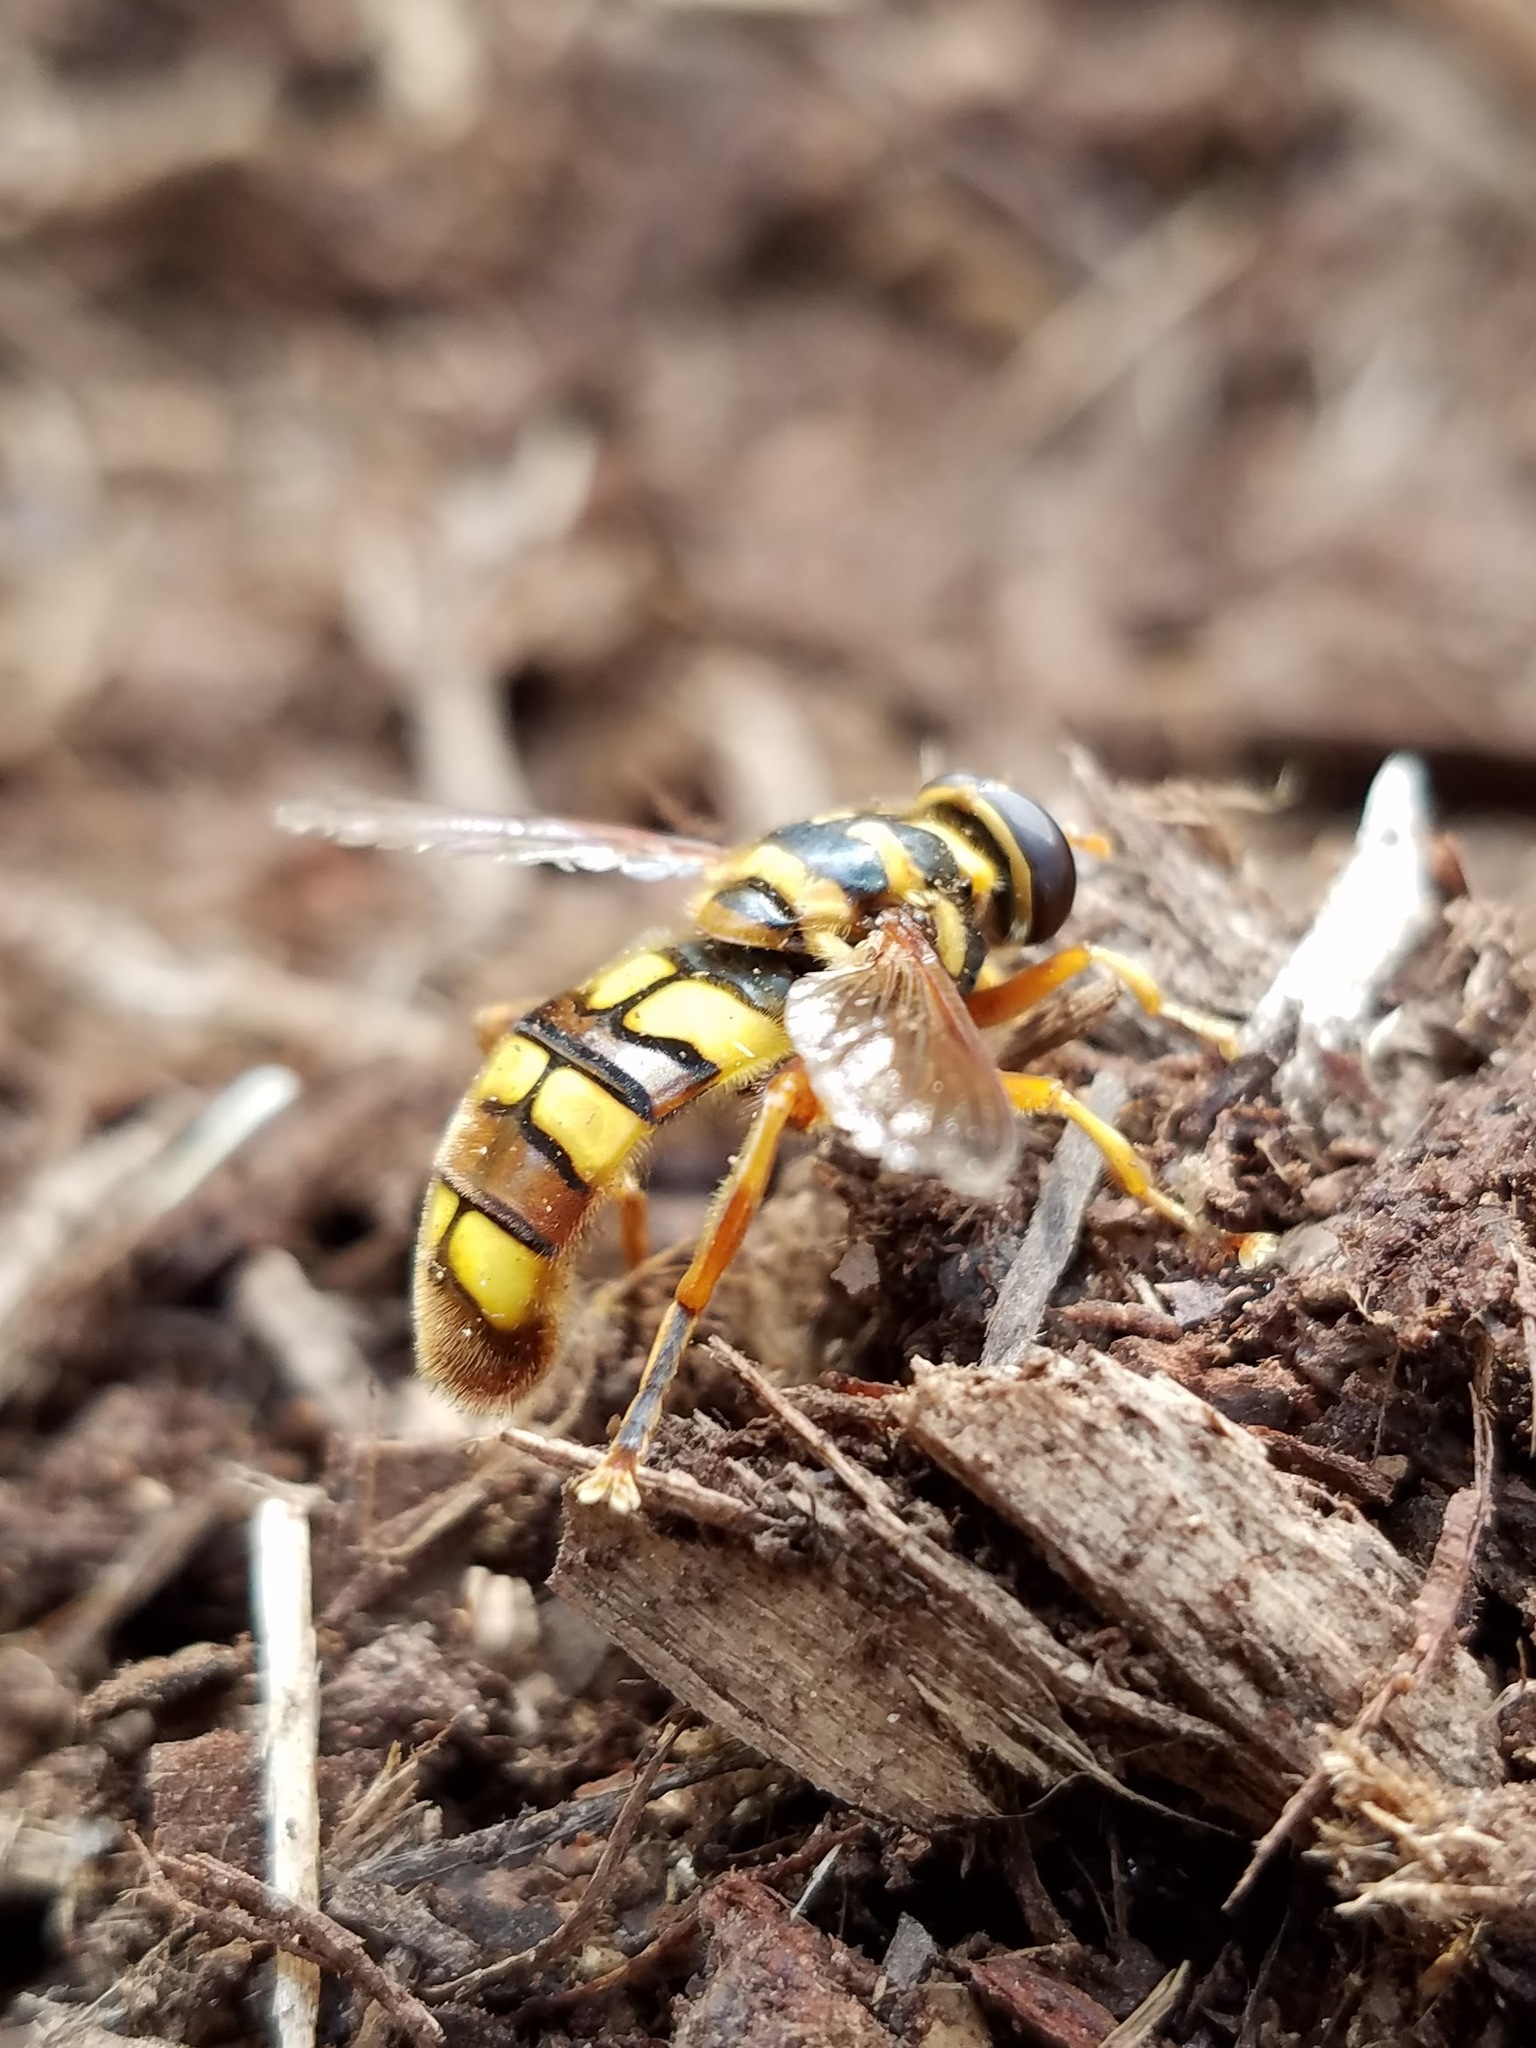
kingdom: Animalia
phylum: Arthropoda
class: Insecta
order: Diptera
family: Syrphidae
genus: Milesia
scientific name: Milesia virginiensis
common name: Virginia giant
